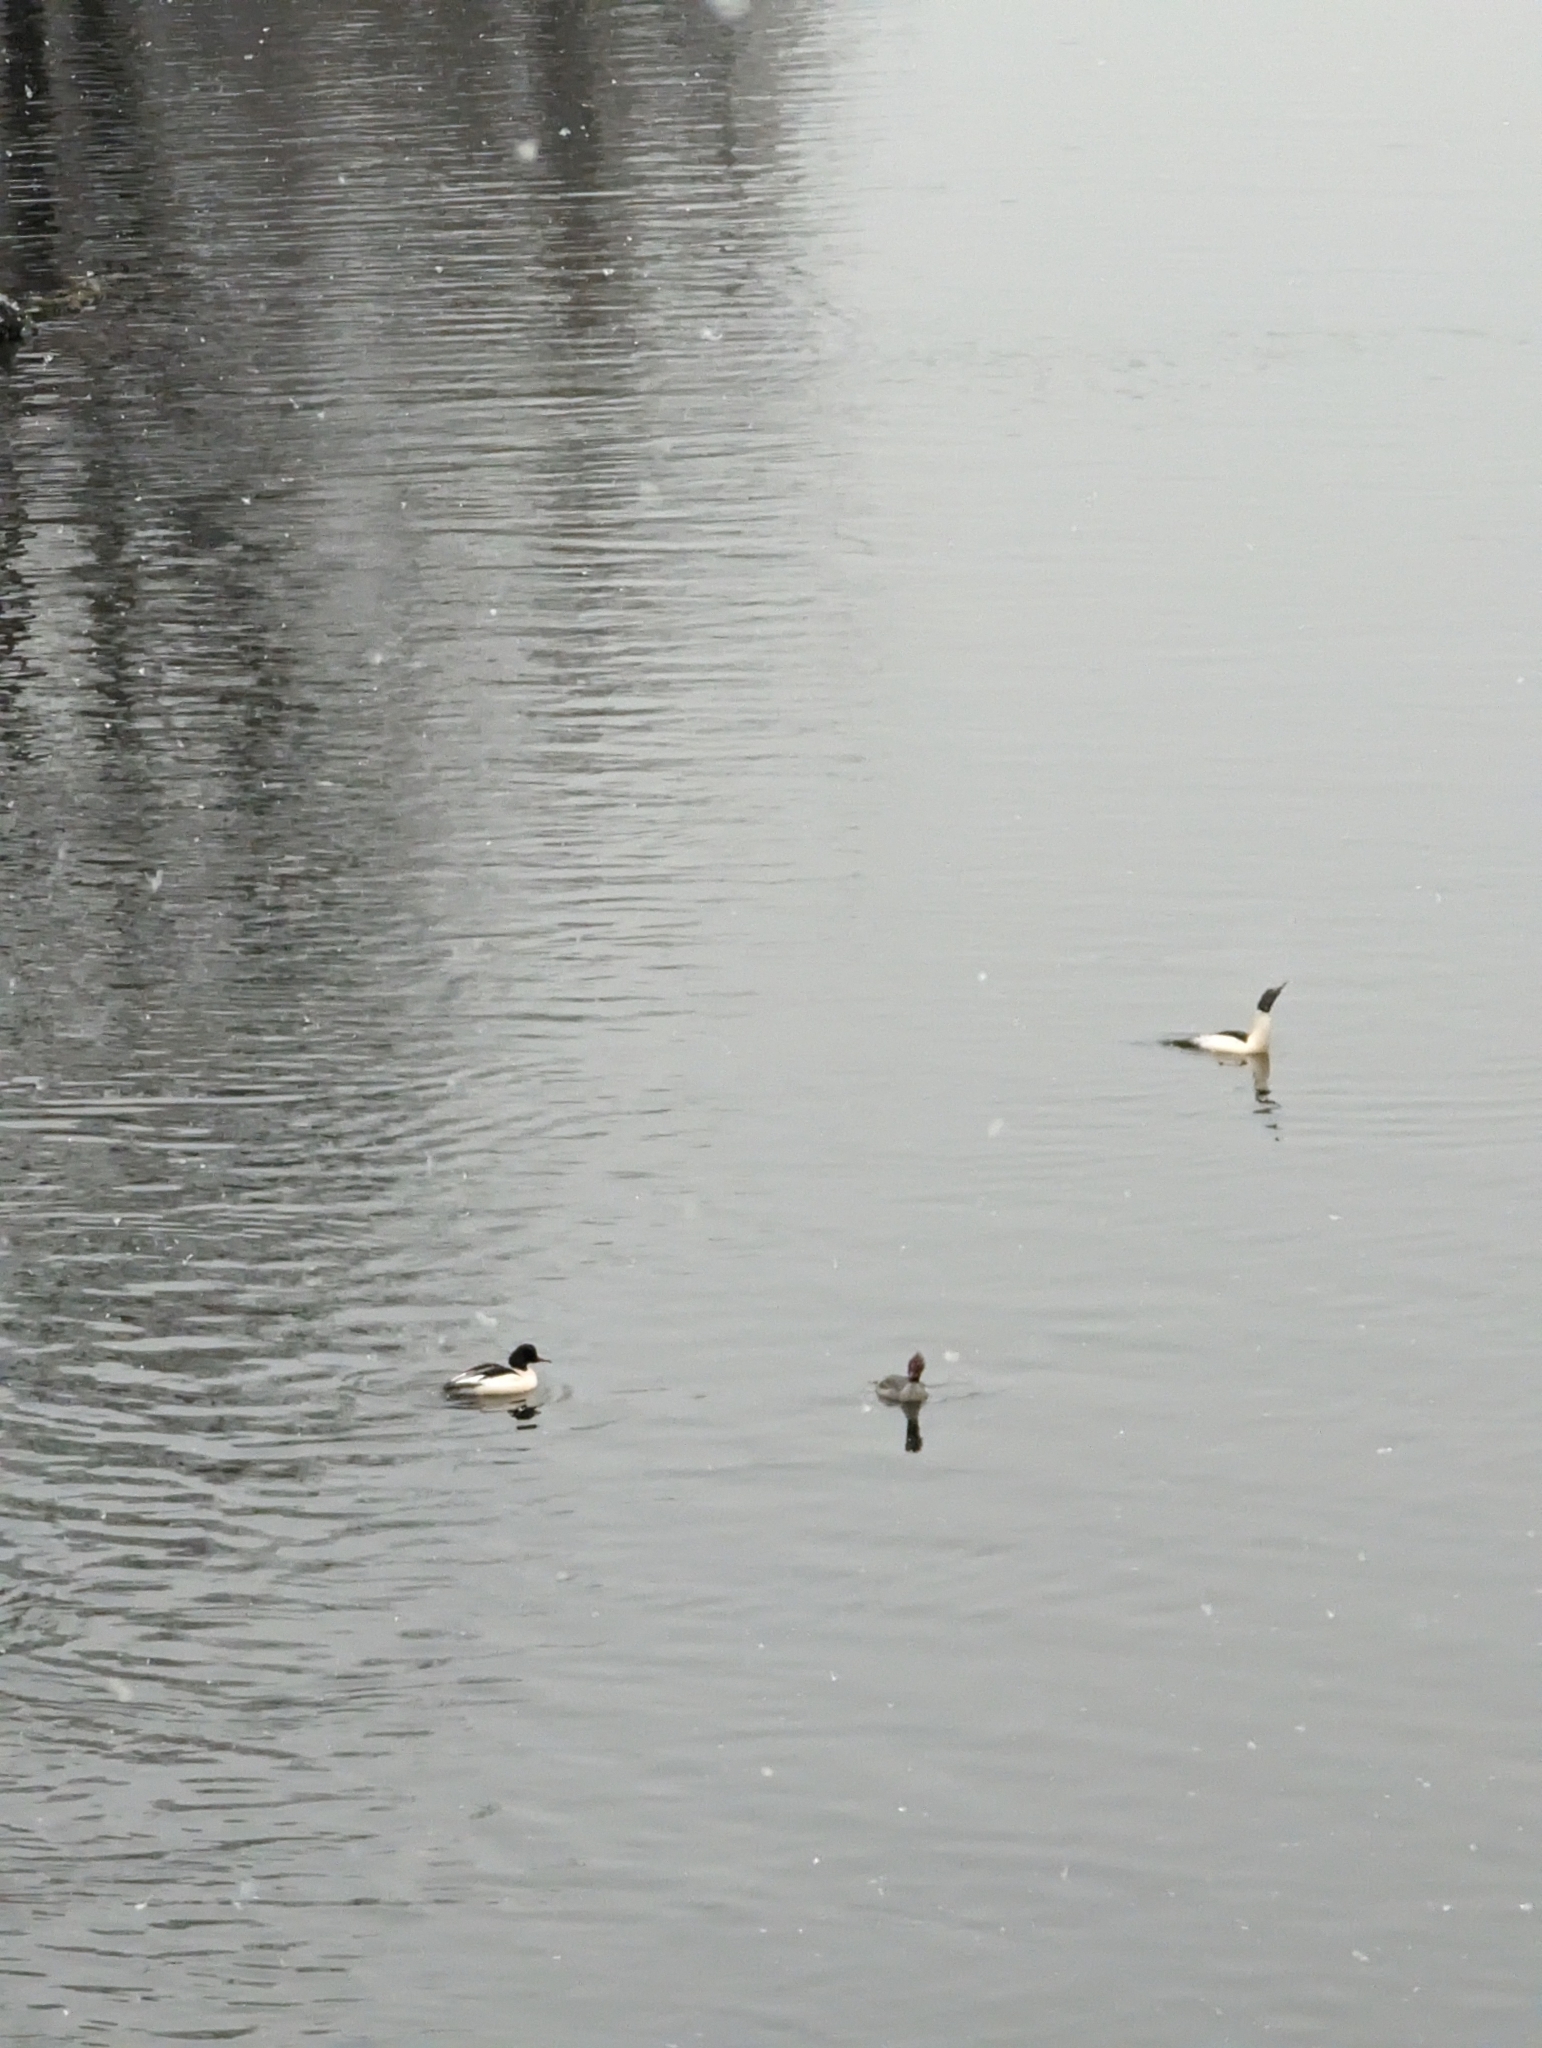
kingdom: Animalia
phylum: Chordata
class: Aves
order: Anseriformes
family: Anatidae
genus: Mergus
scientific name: Mergus merganser
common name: Common merganser
